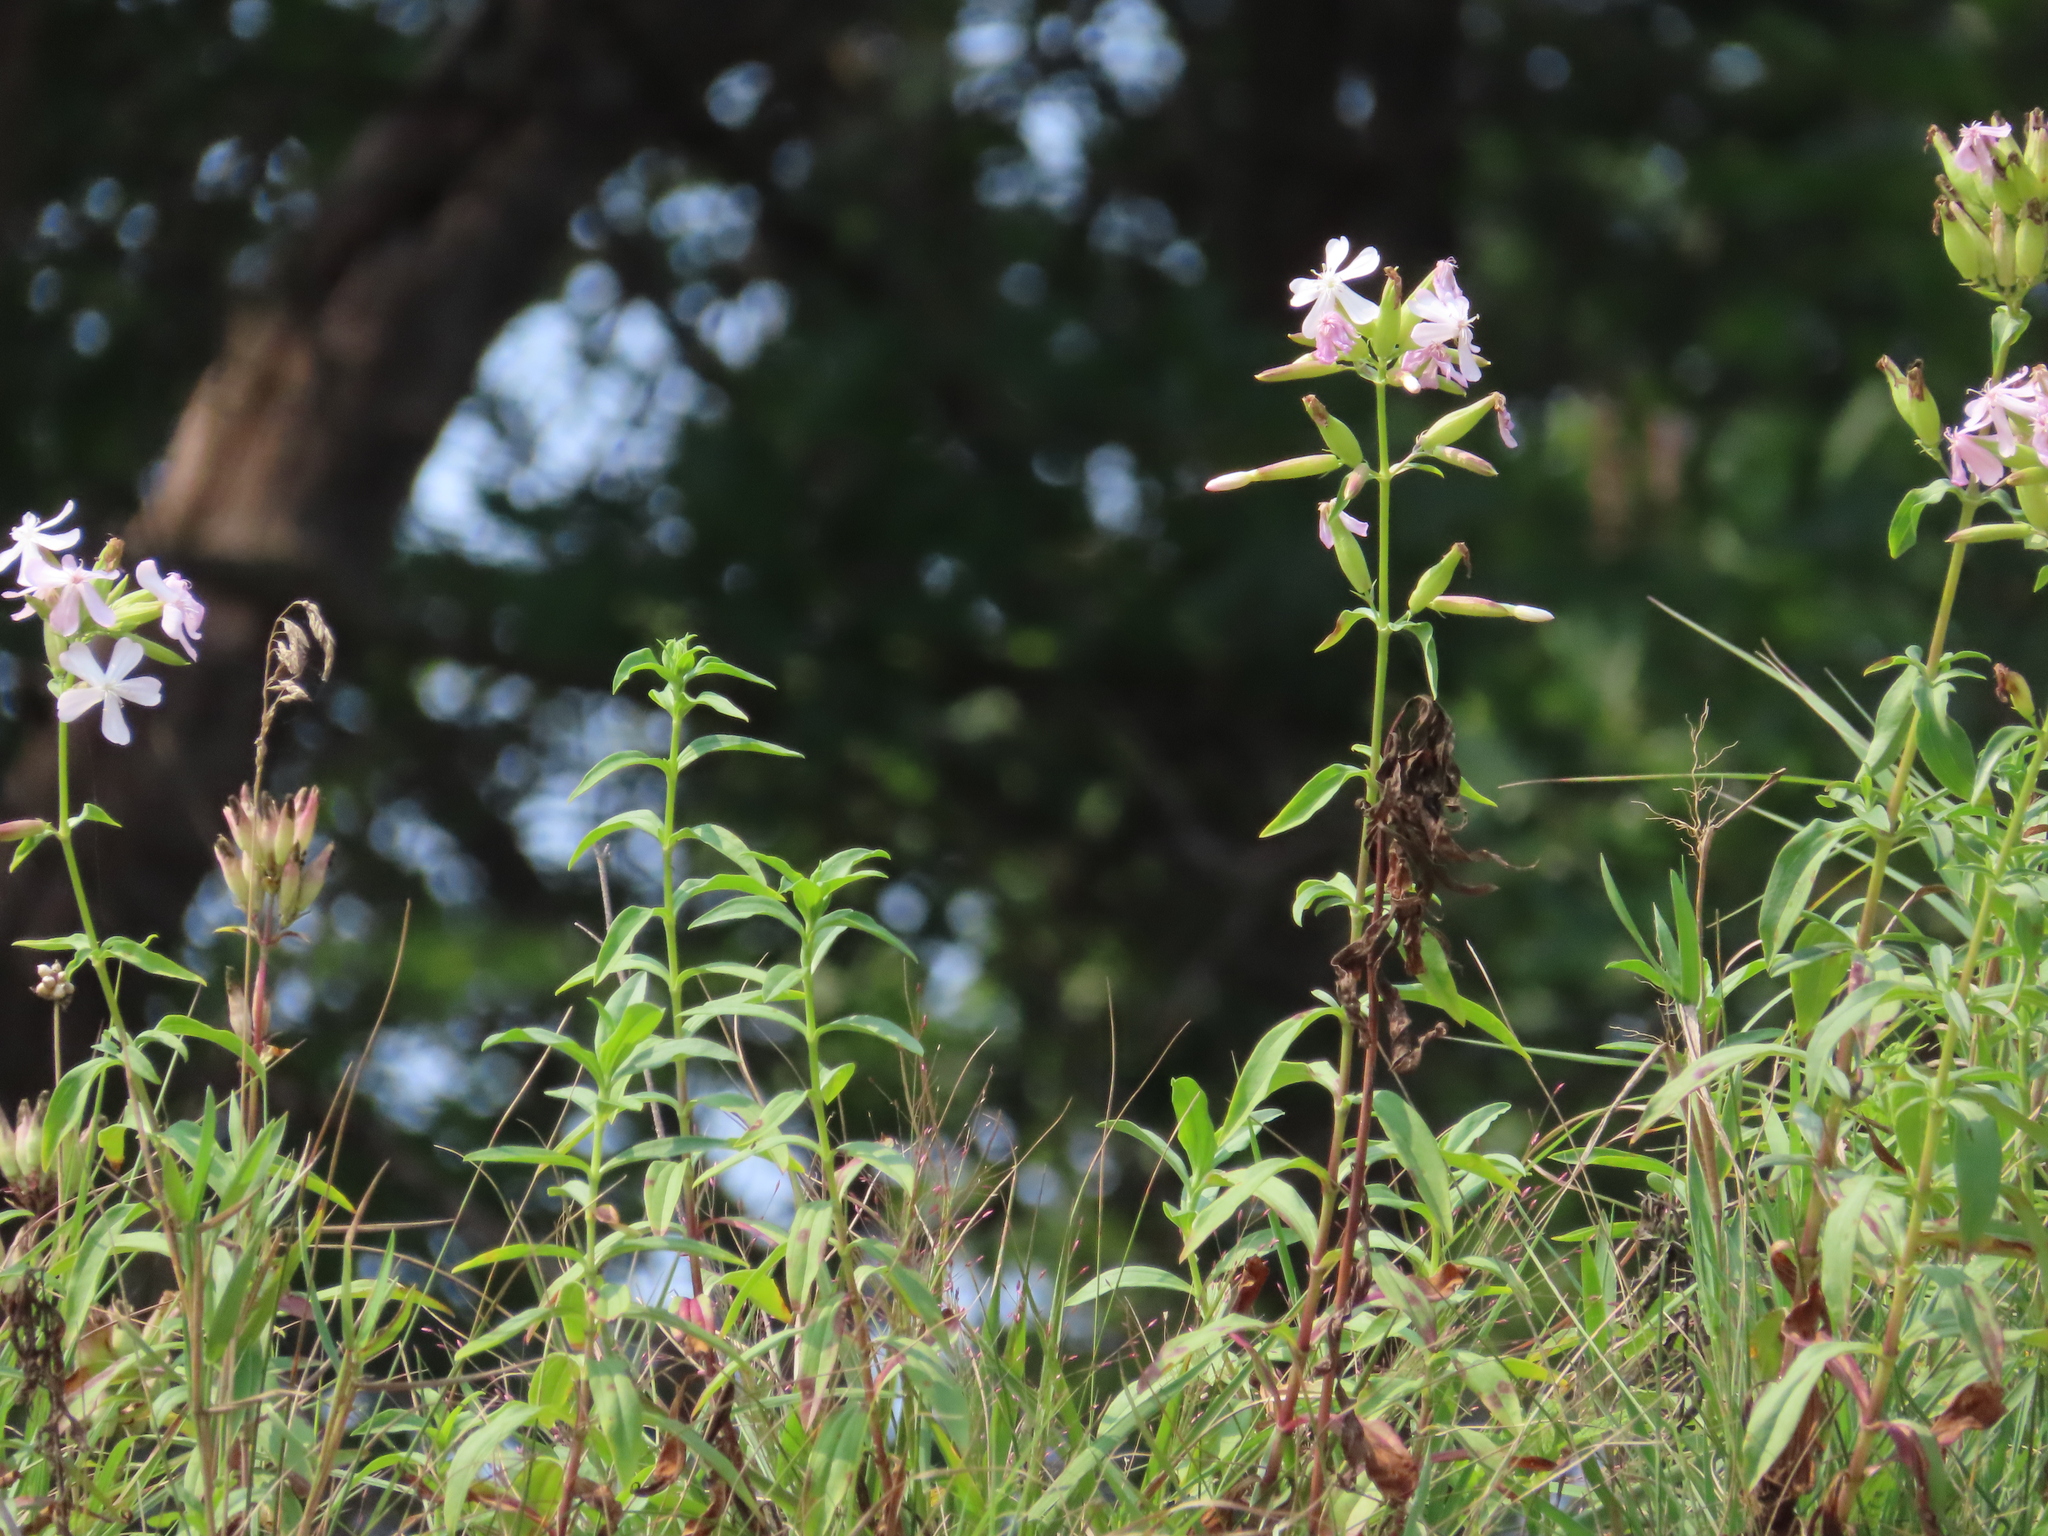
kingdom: Plantae
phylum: Tracheophyta
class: Magnoliopsida
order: Caryophyllales
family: Caryophyllaceae
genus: Saponaria
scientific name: Saponaria officinalis
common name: Soapwort
